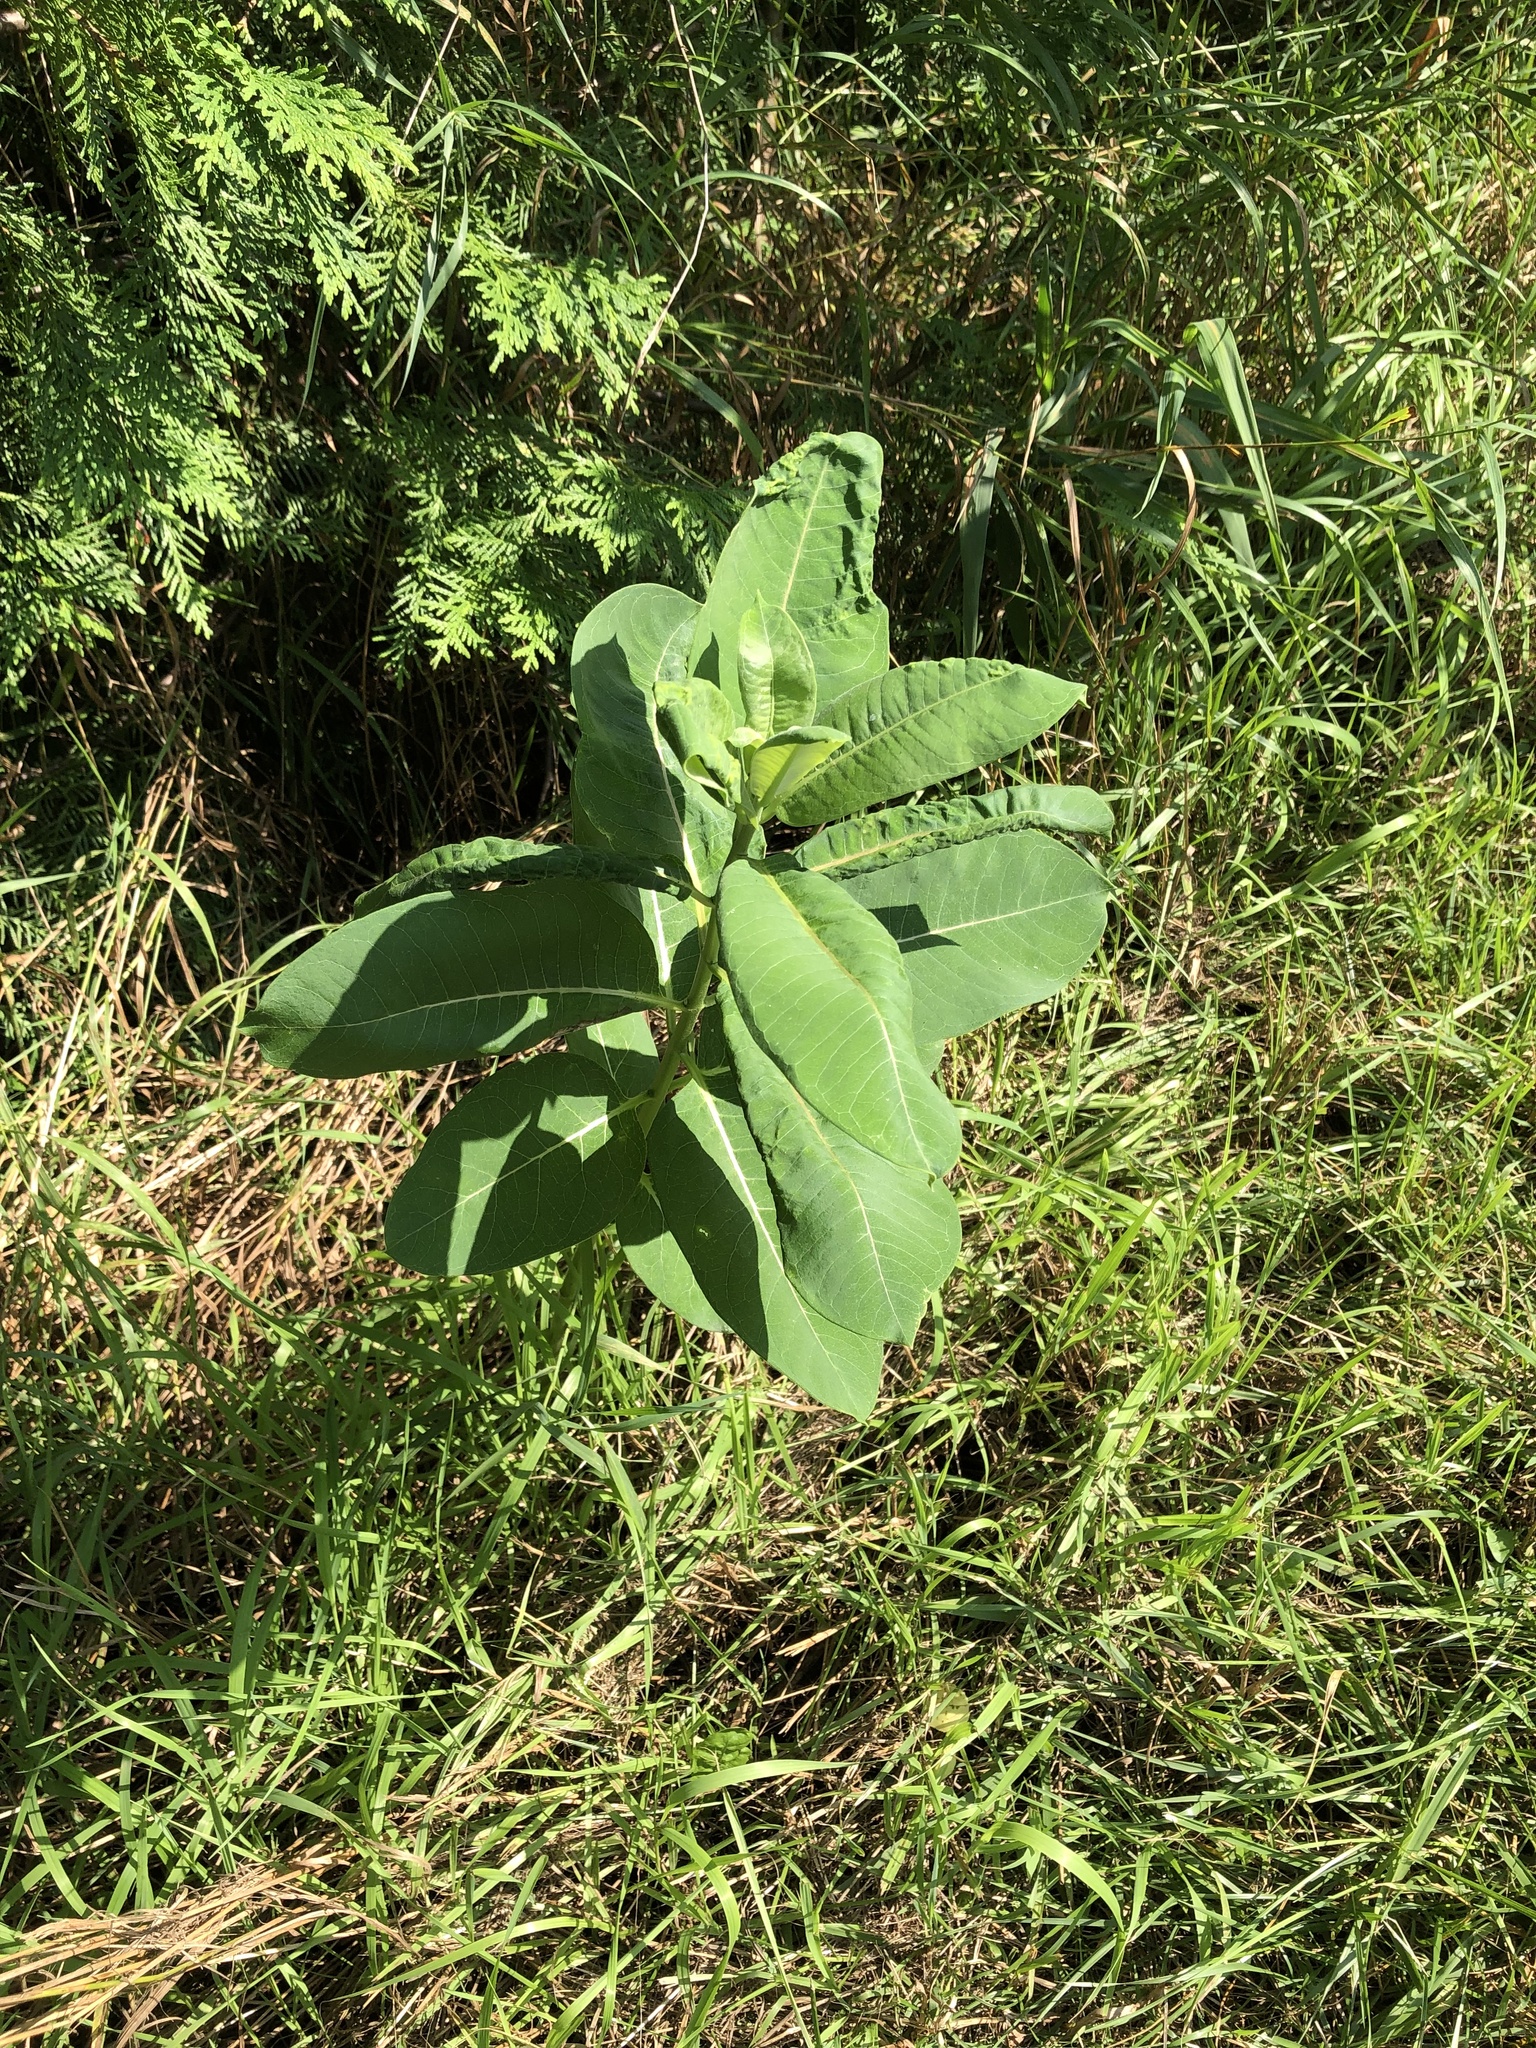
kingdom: Plantae
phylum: Tracheophyta
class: Magnoliopsida
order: Gentianales
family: Apocynaceae
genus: Asclepias
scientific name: Asclepias syriaca
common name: Common milkweed
